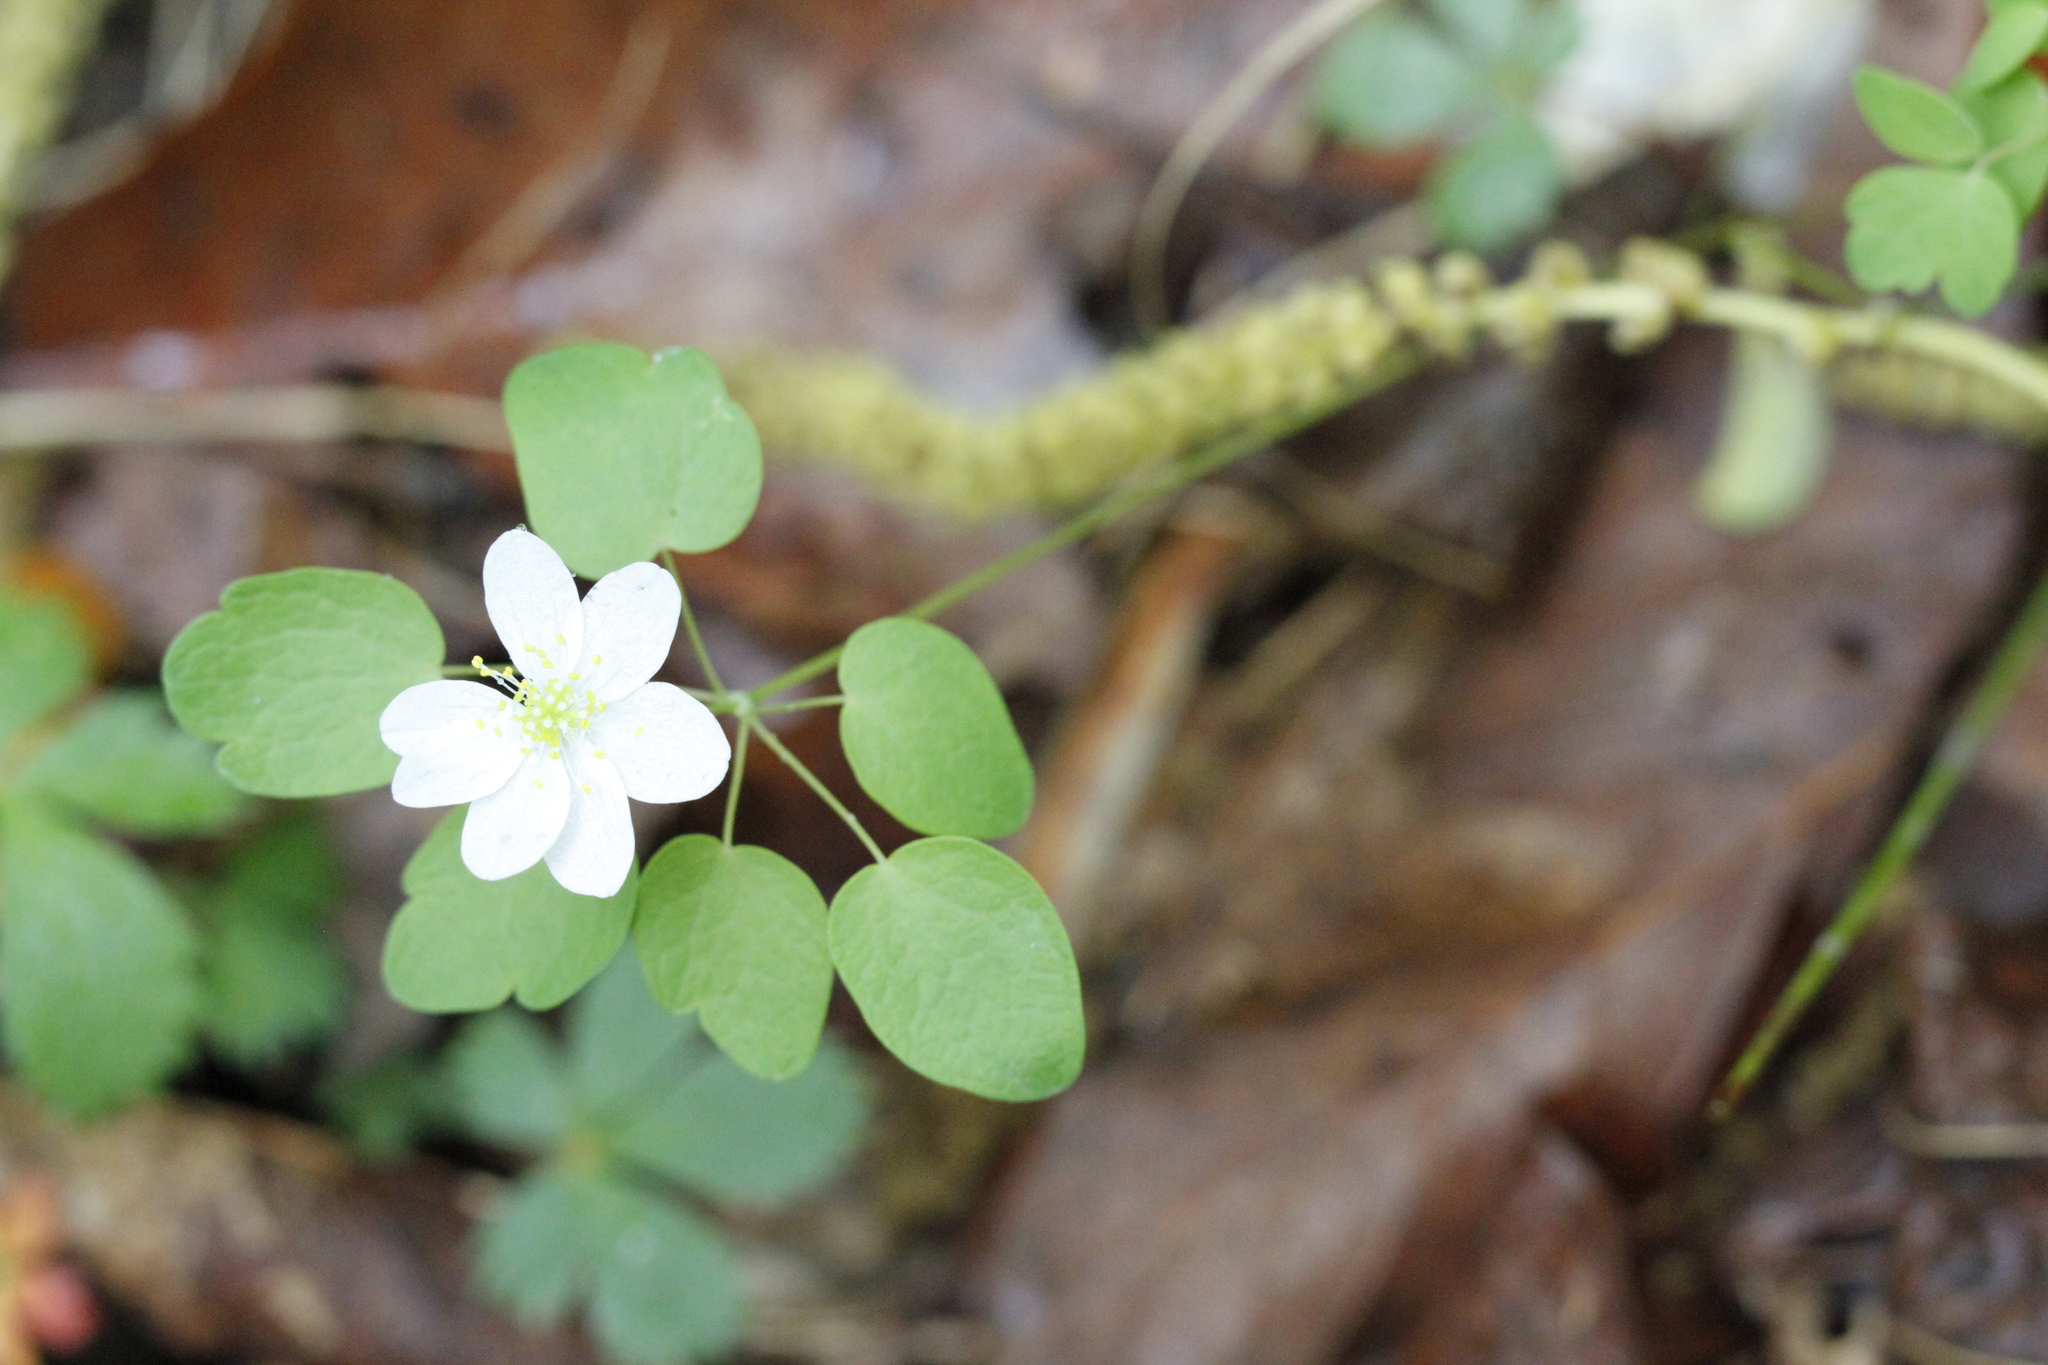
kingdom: Plantae
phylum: Tracheophyta
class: Magnoliopsida
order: Ranunculales
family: Ranunculaceae
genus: Thalictrum
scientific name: Thalictrum thalictroides
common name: Rue-anemone
